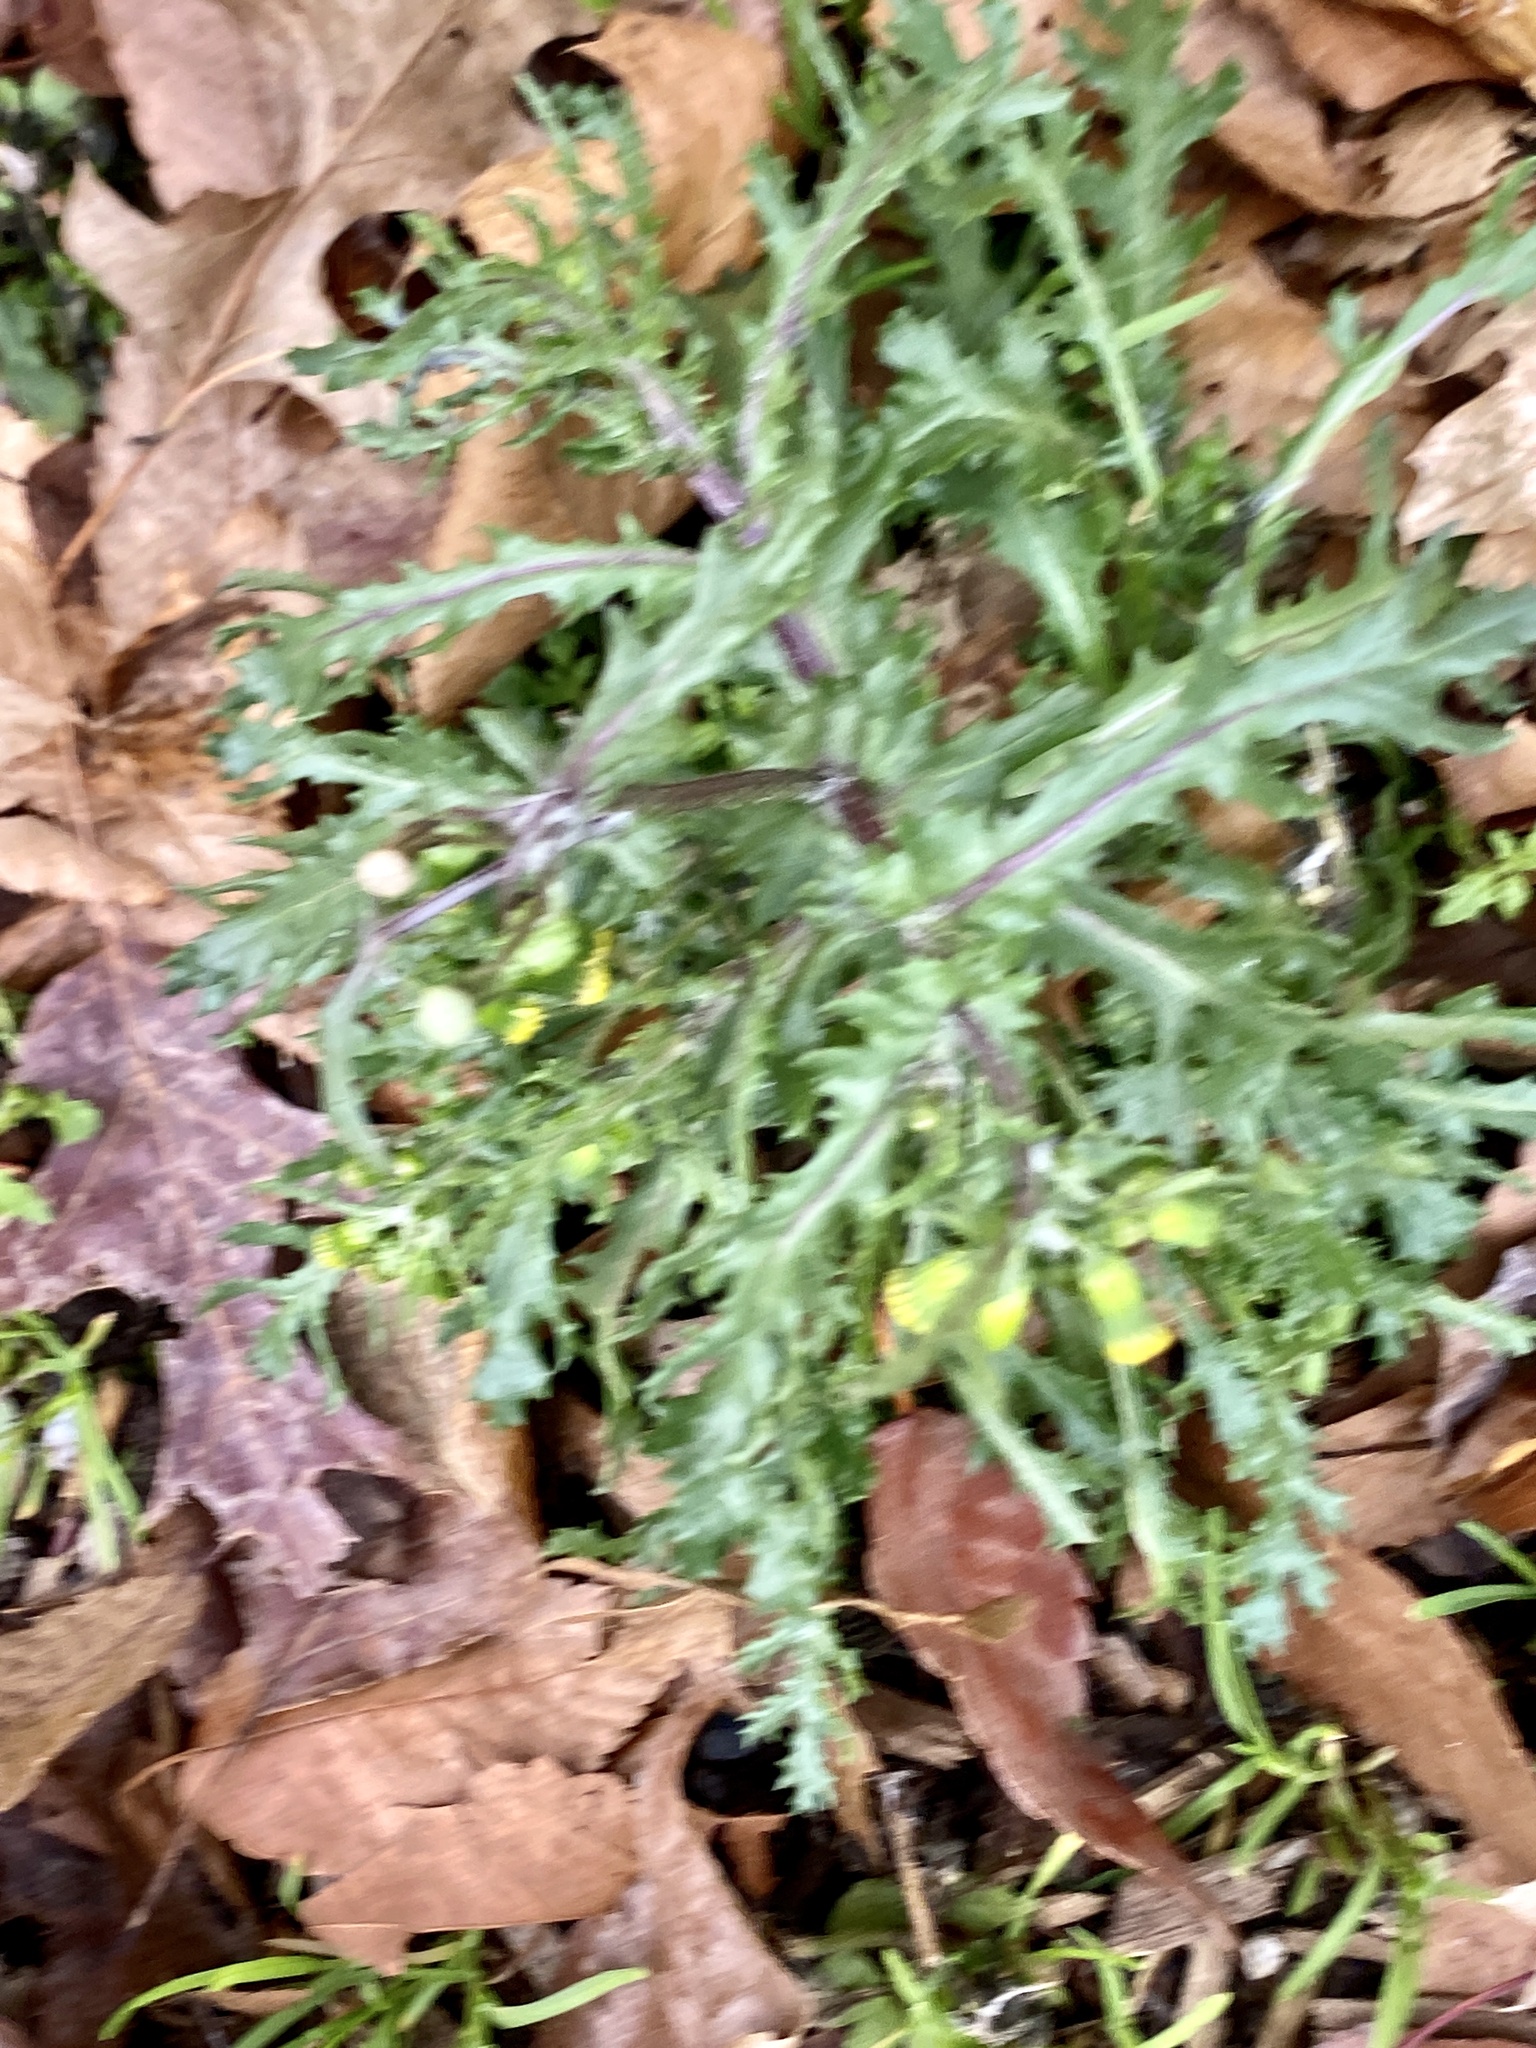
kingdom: Plantae
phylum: Tracheophyta
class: Magnoliopsida
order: Asterales
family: Asteraceae
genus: Senecio
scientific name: Senecio vulgaris
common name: Old-man-in-the-spring
